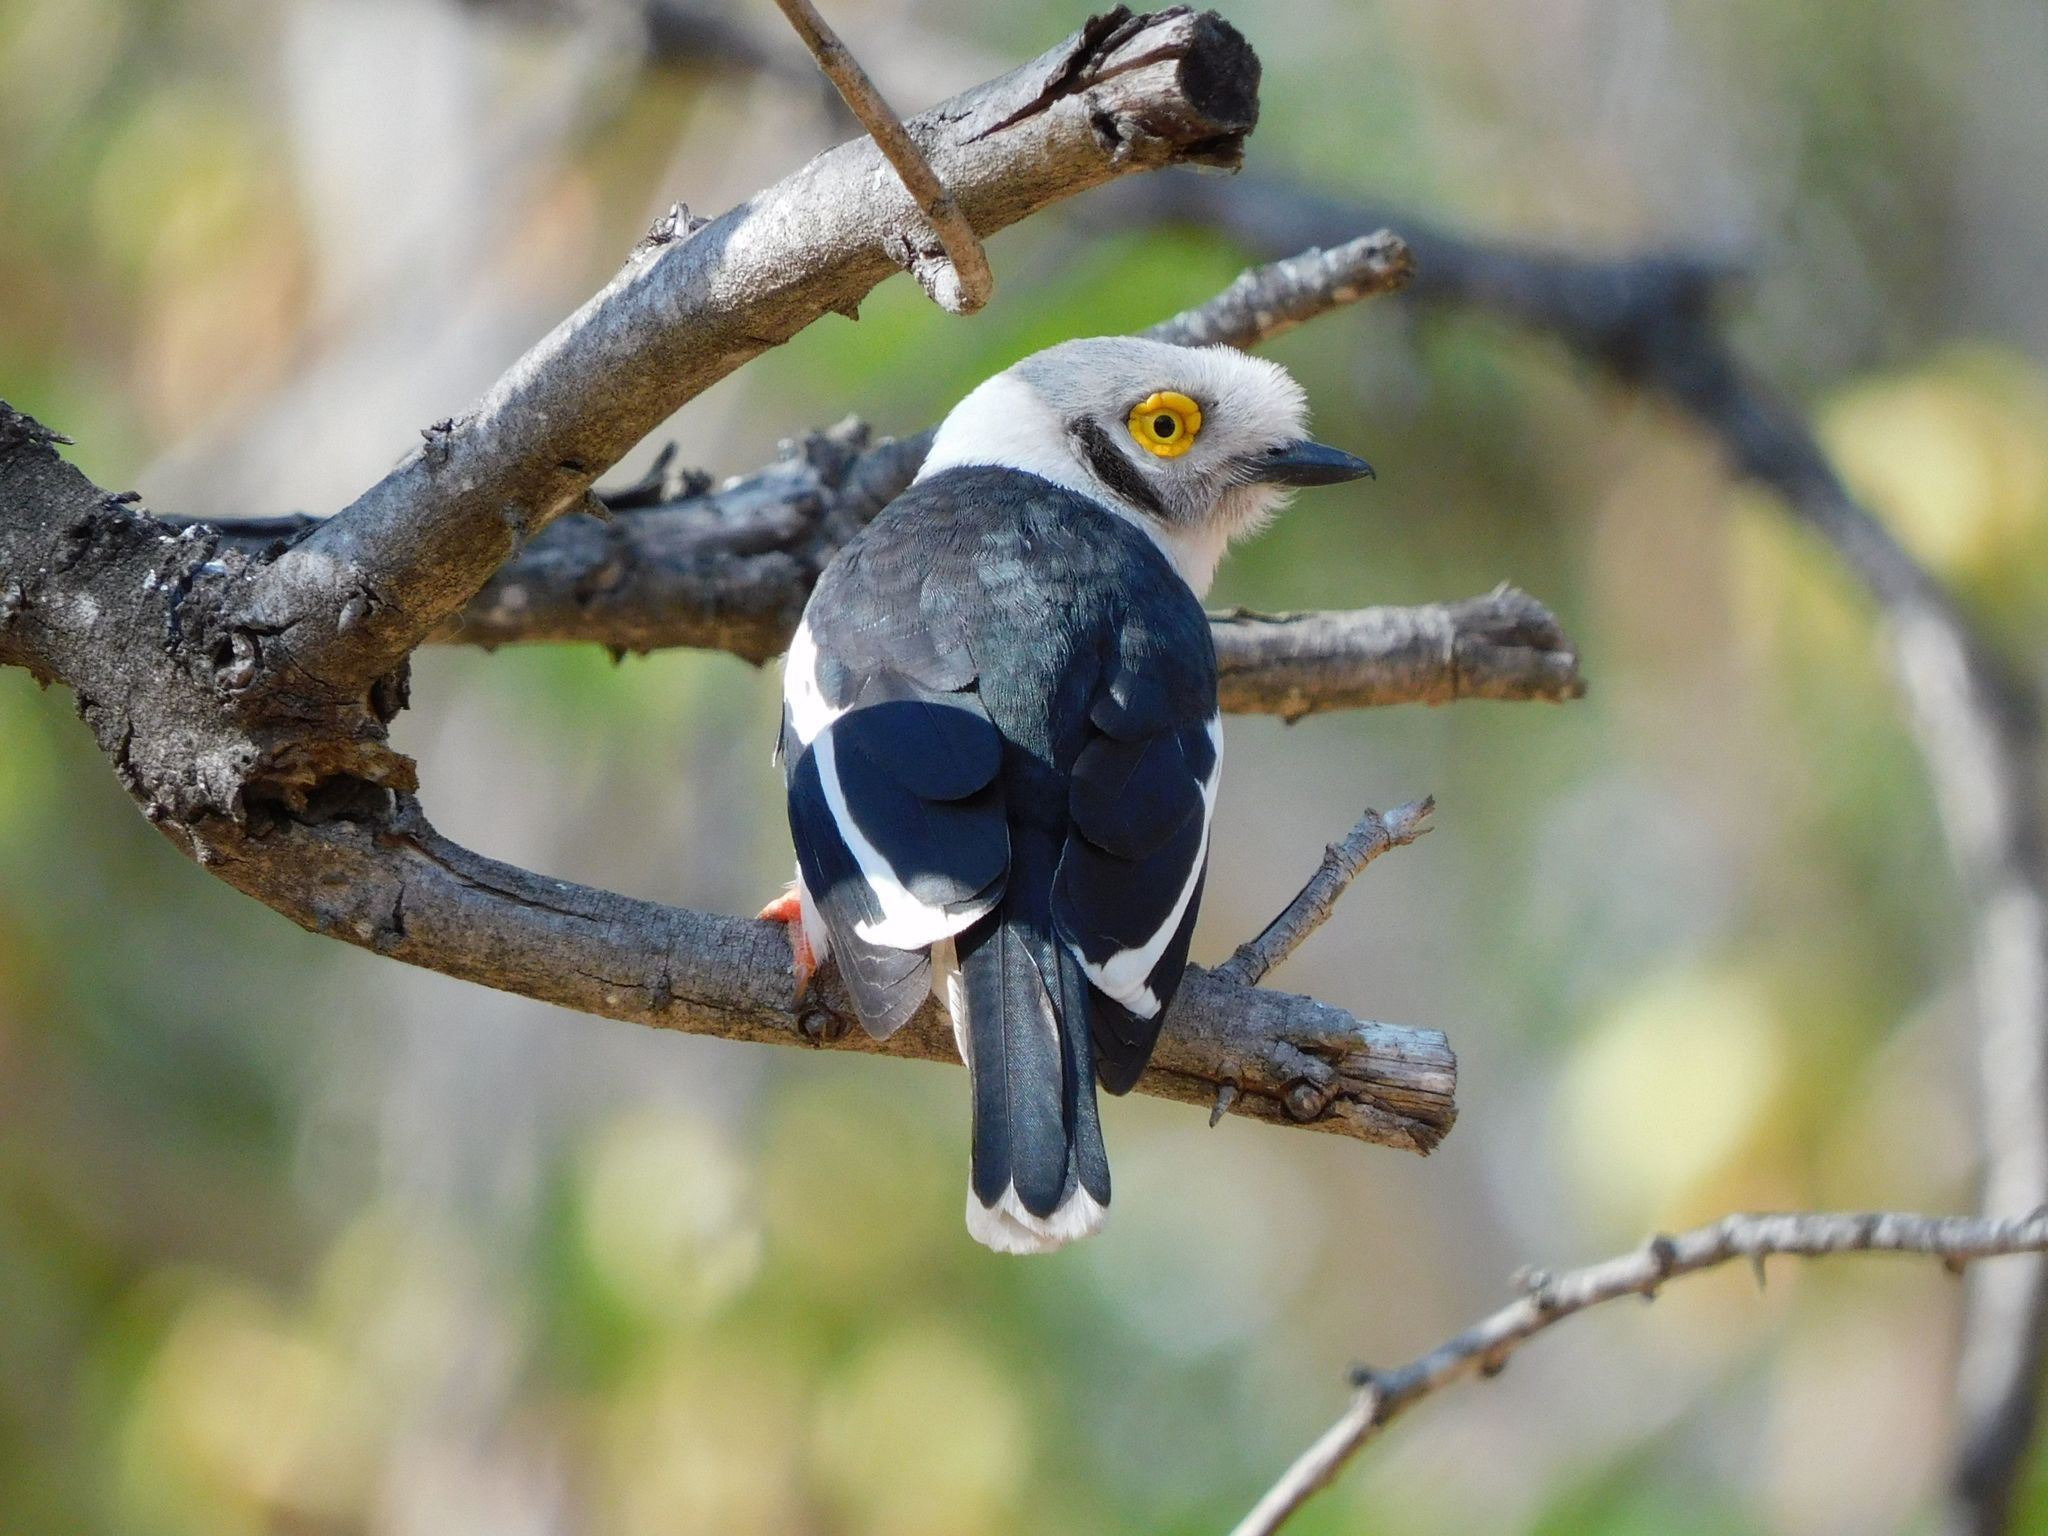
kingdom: Animalia
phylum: Chordata
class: Aves
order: Passeriformes
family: Prionopidae
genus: Prionops
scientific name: Prionops plumatus
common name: White-crested helmetshrike
